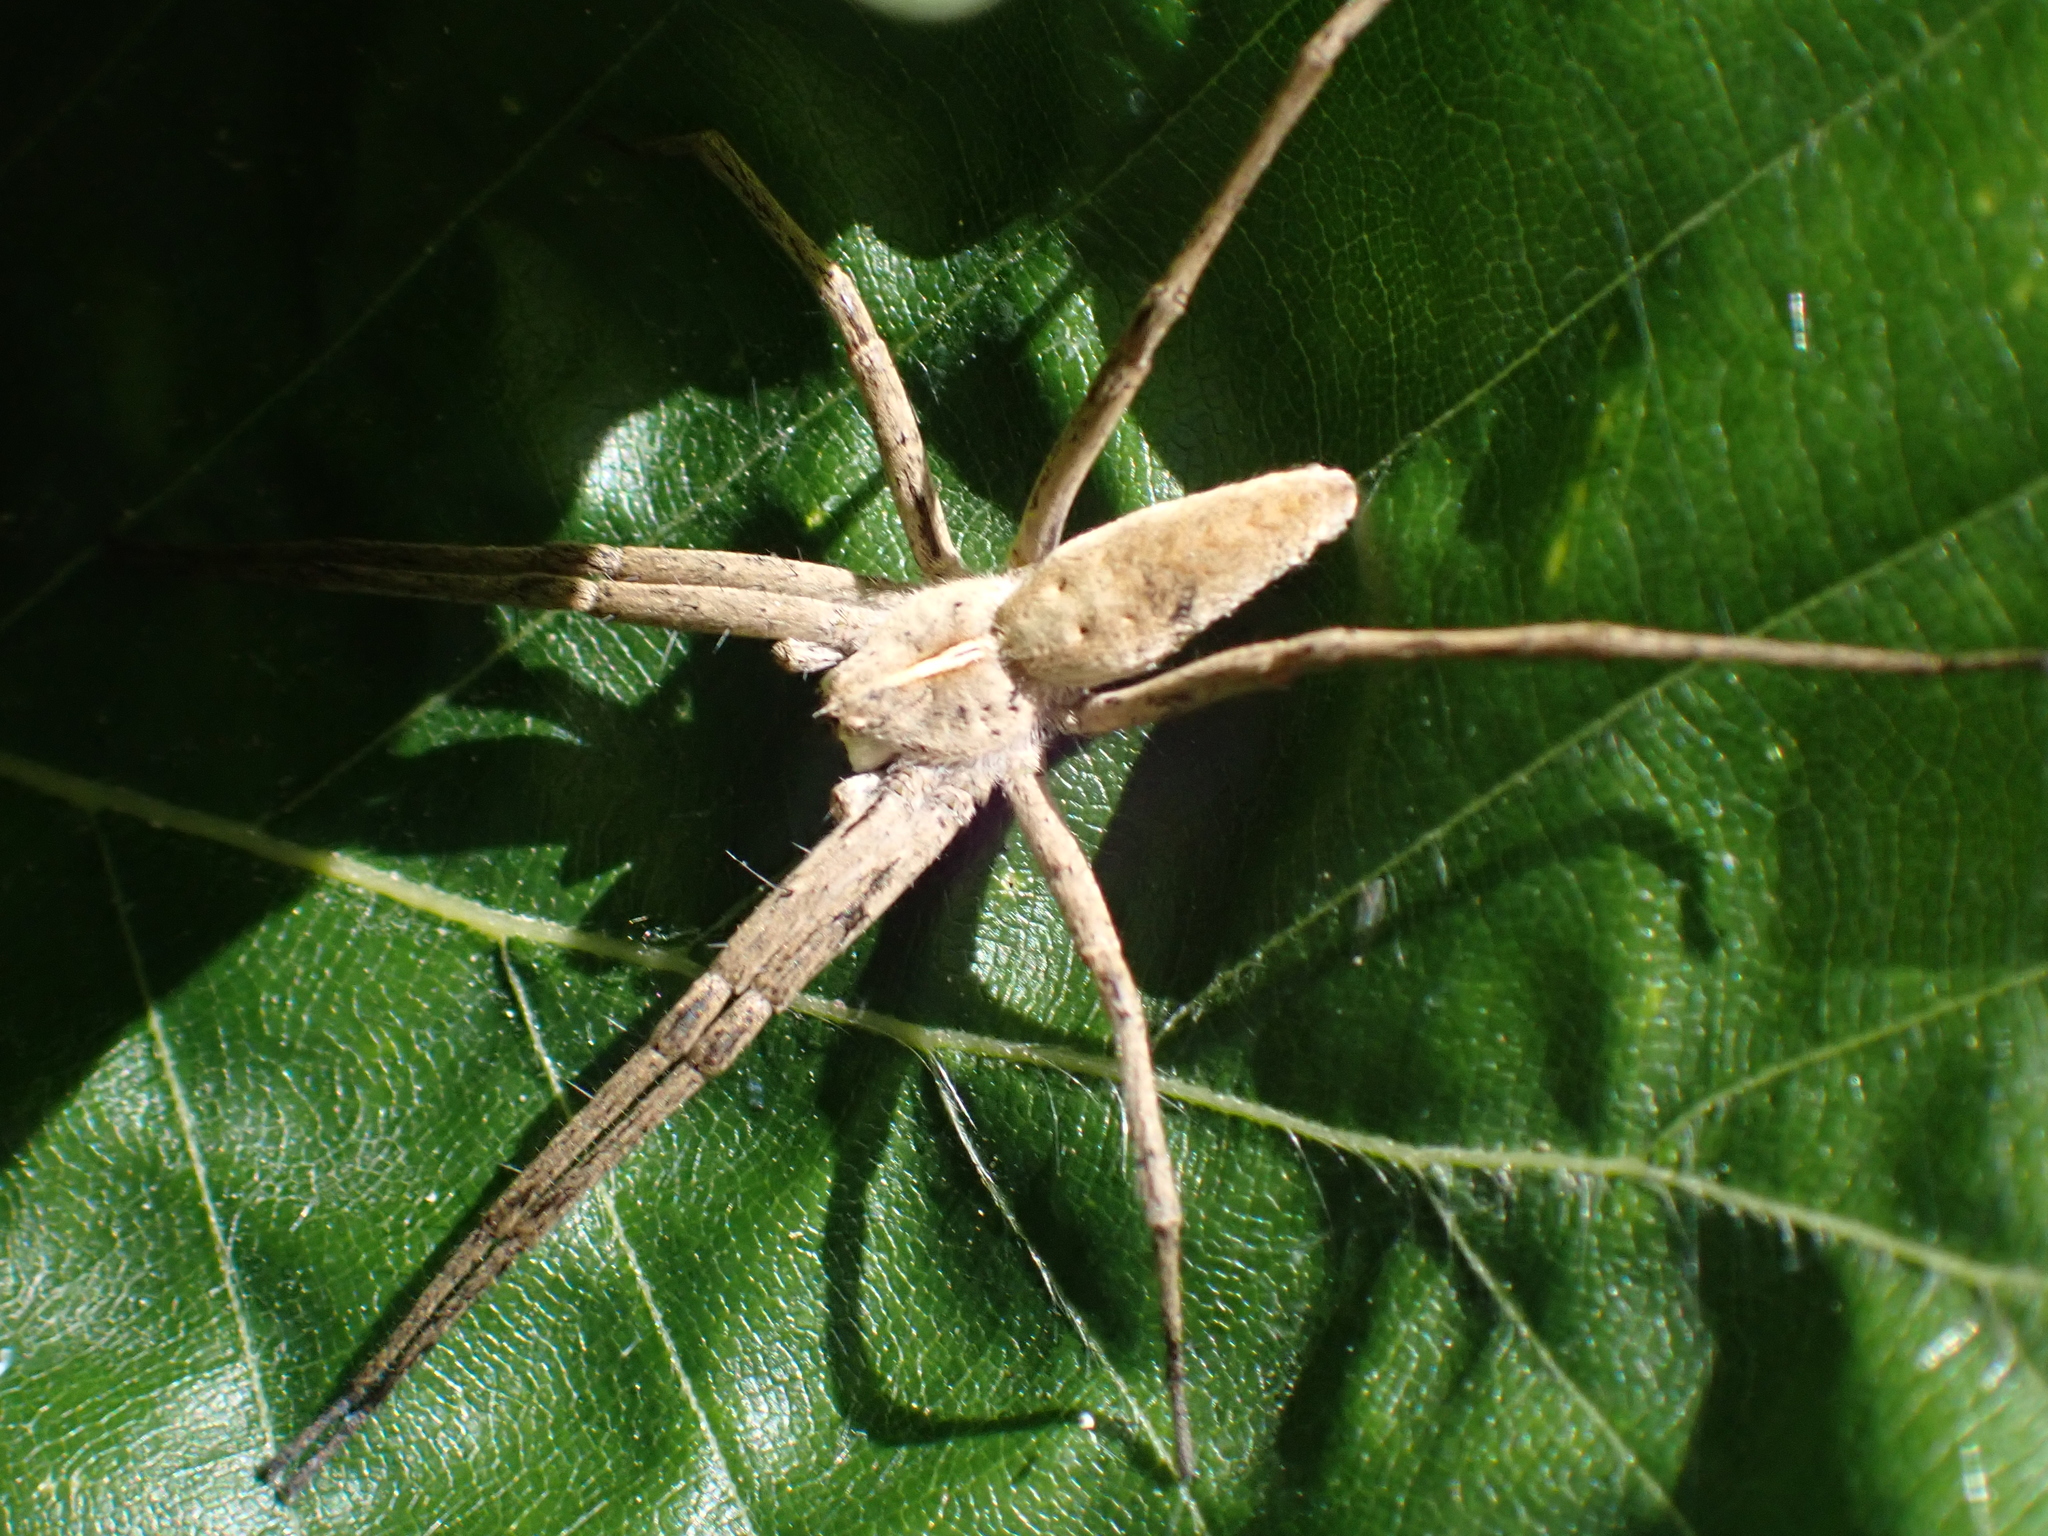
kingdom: Animalia
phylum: Arthropoda
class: Arachnida
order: Araneae
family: Pisauridae
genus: Pisaura
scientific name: Pisaura mirabilis
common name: Tent spider
